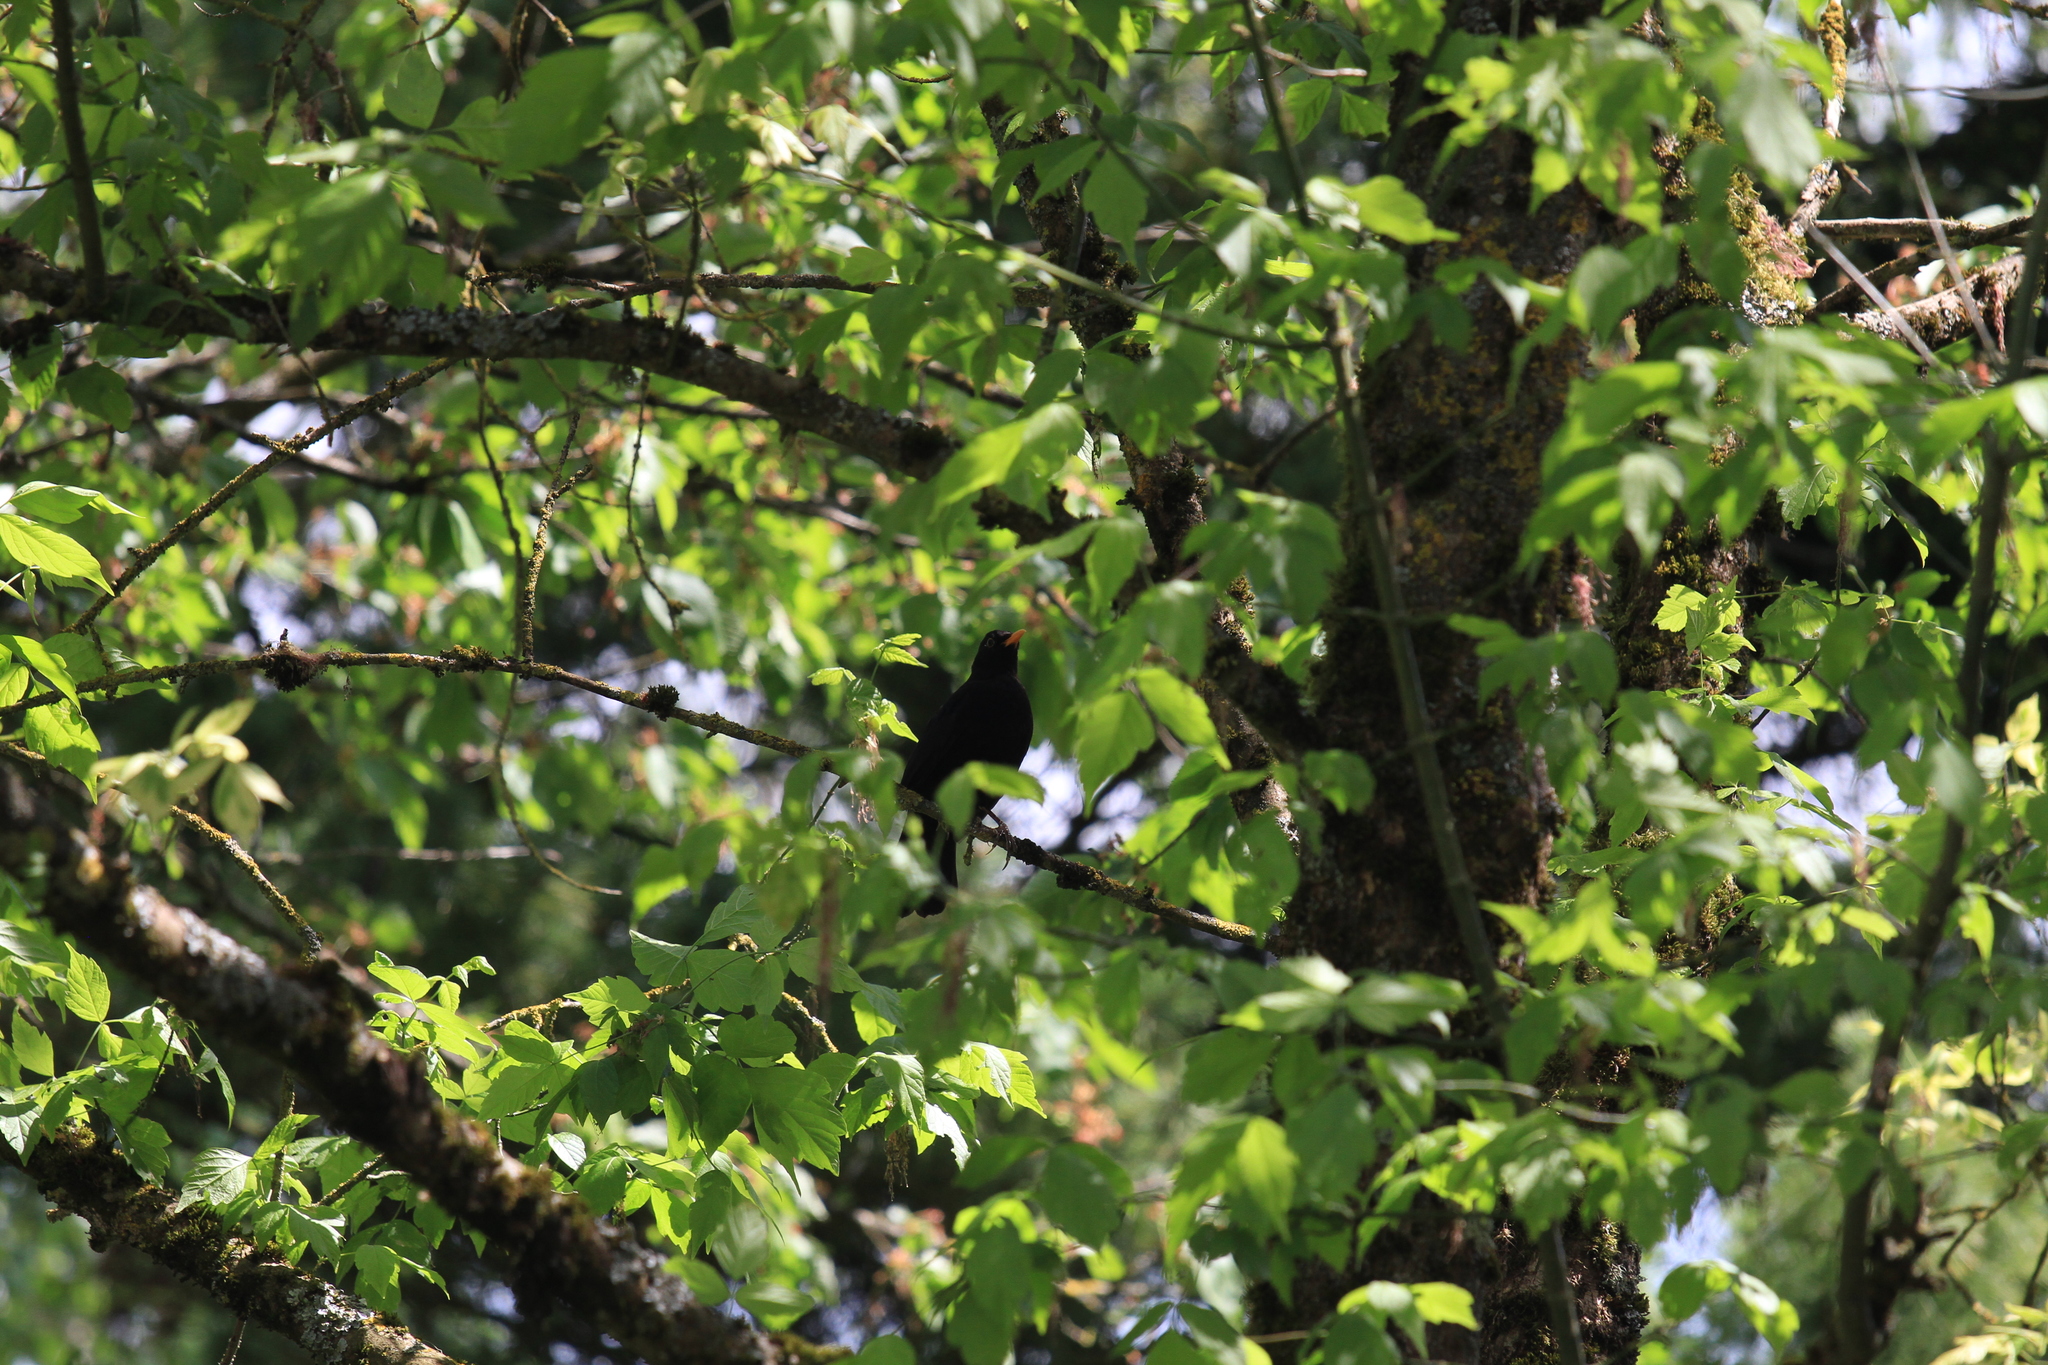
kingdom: Animalia
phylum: Chordata
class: Aves
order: Passeriformes
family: Turdidae
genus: Turdus
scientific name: Turdus merula
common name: Common blackbird
